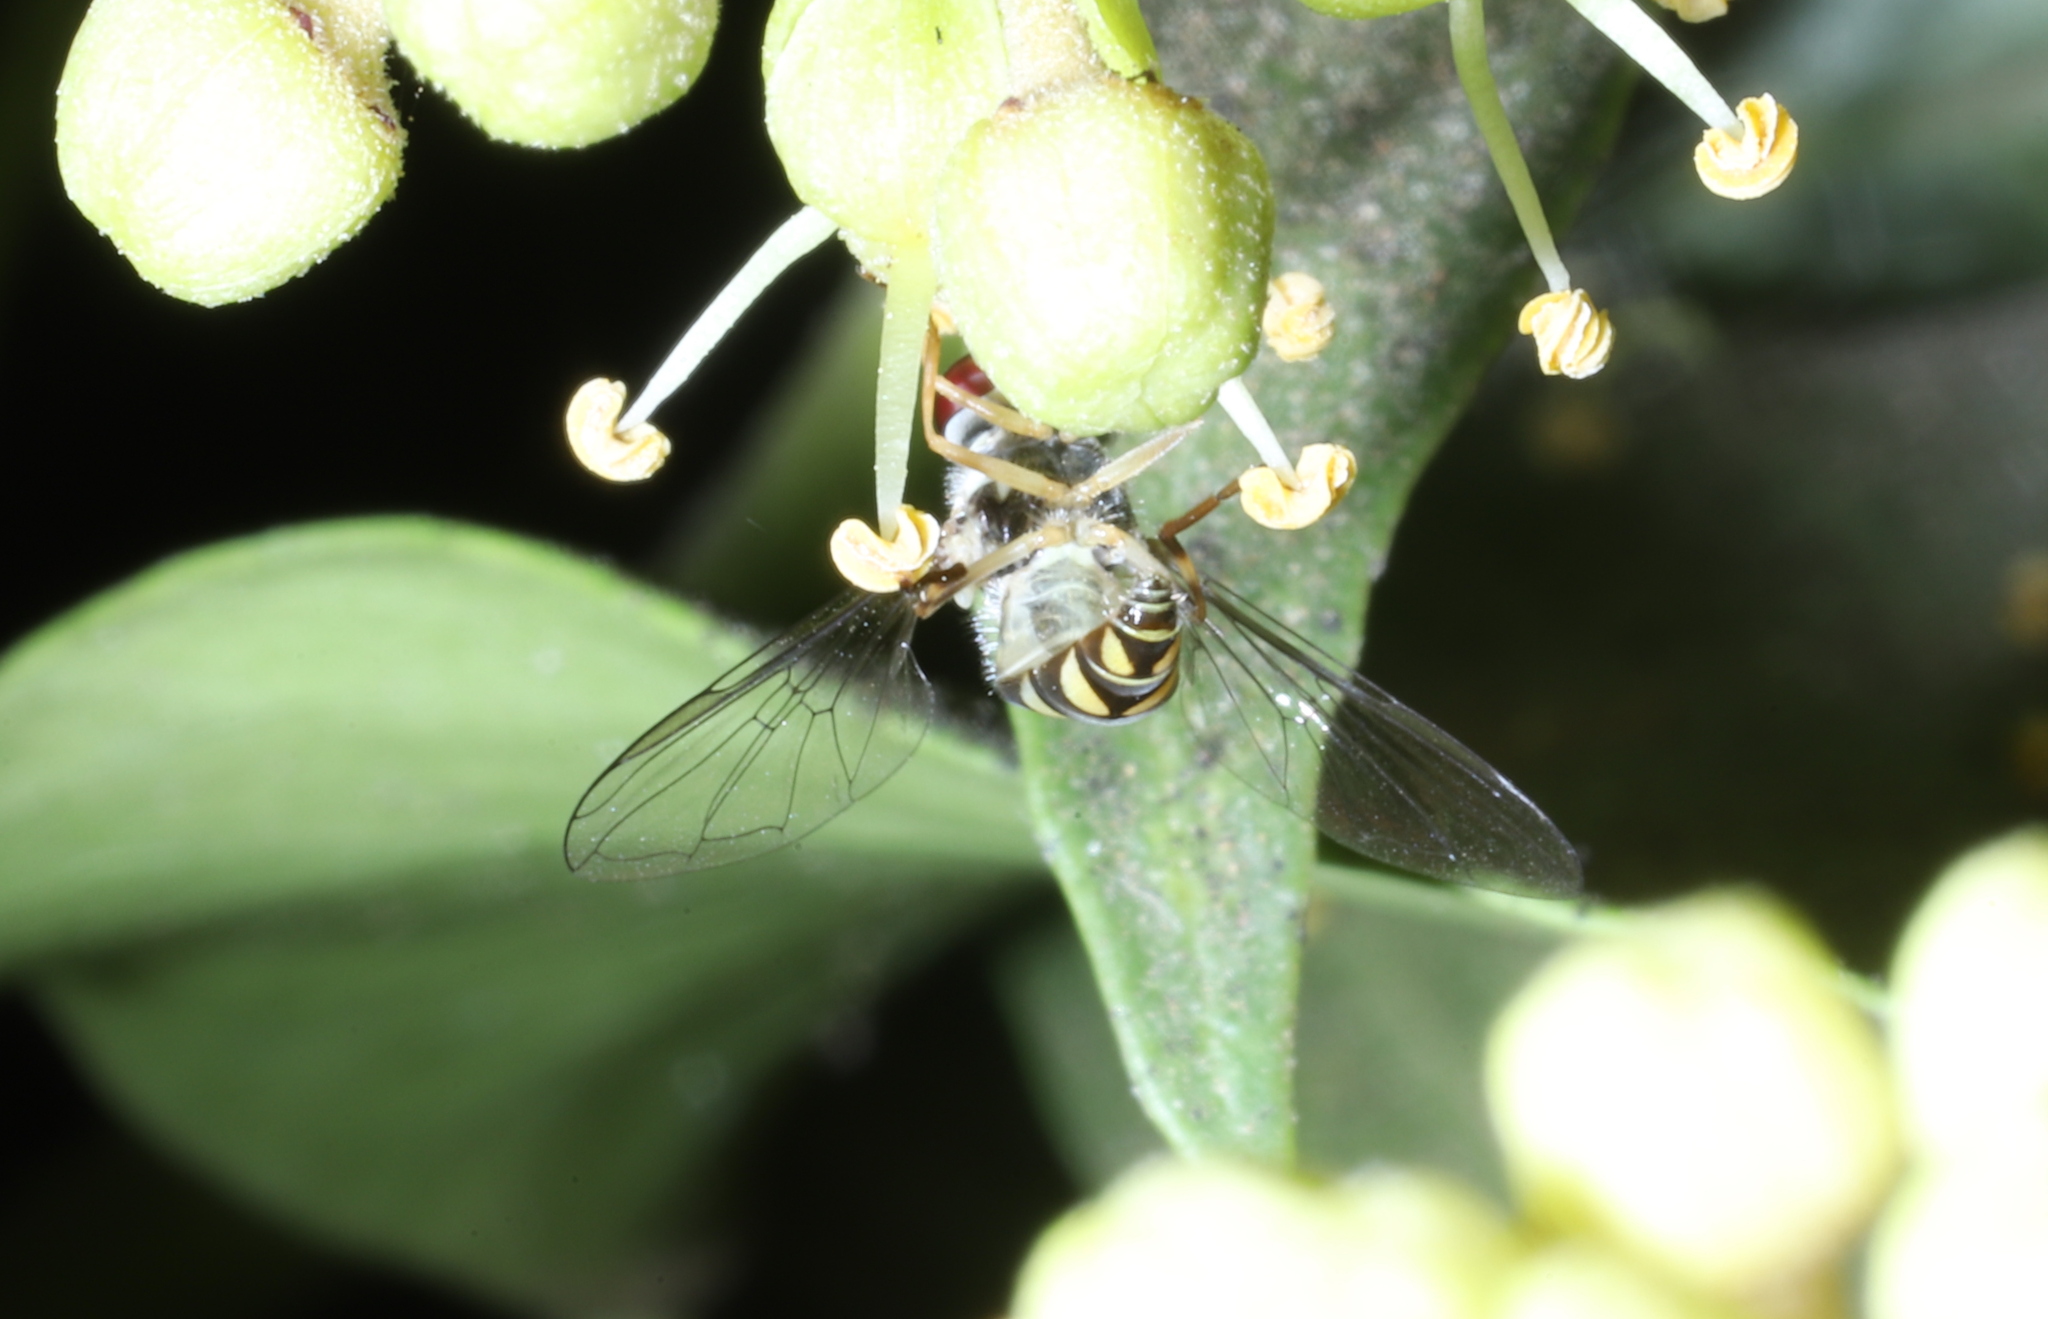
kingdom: Animalia
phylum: Arthropoda
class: Insecta
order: Diptera
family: Syrphidae
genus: Allograpta
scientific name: Allograpta hortensis
